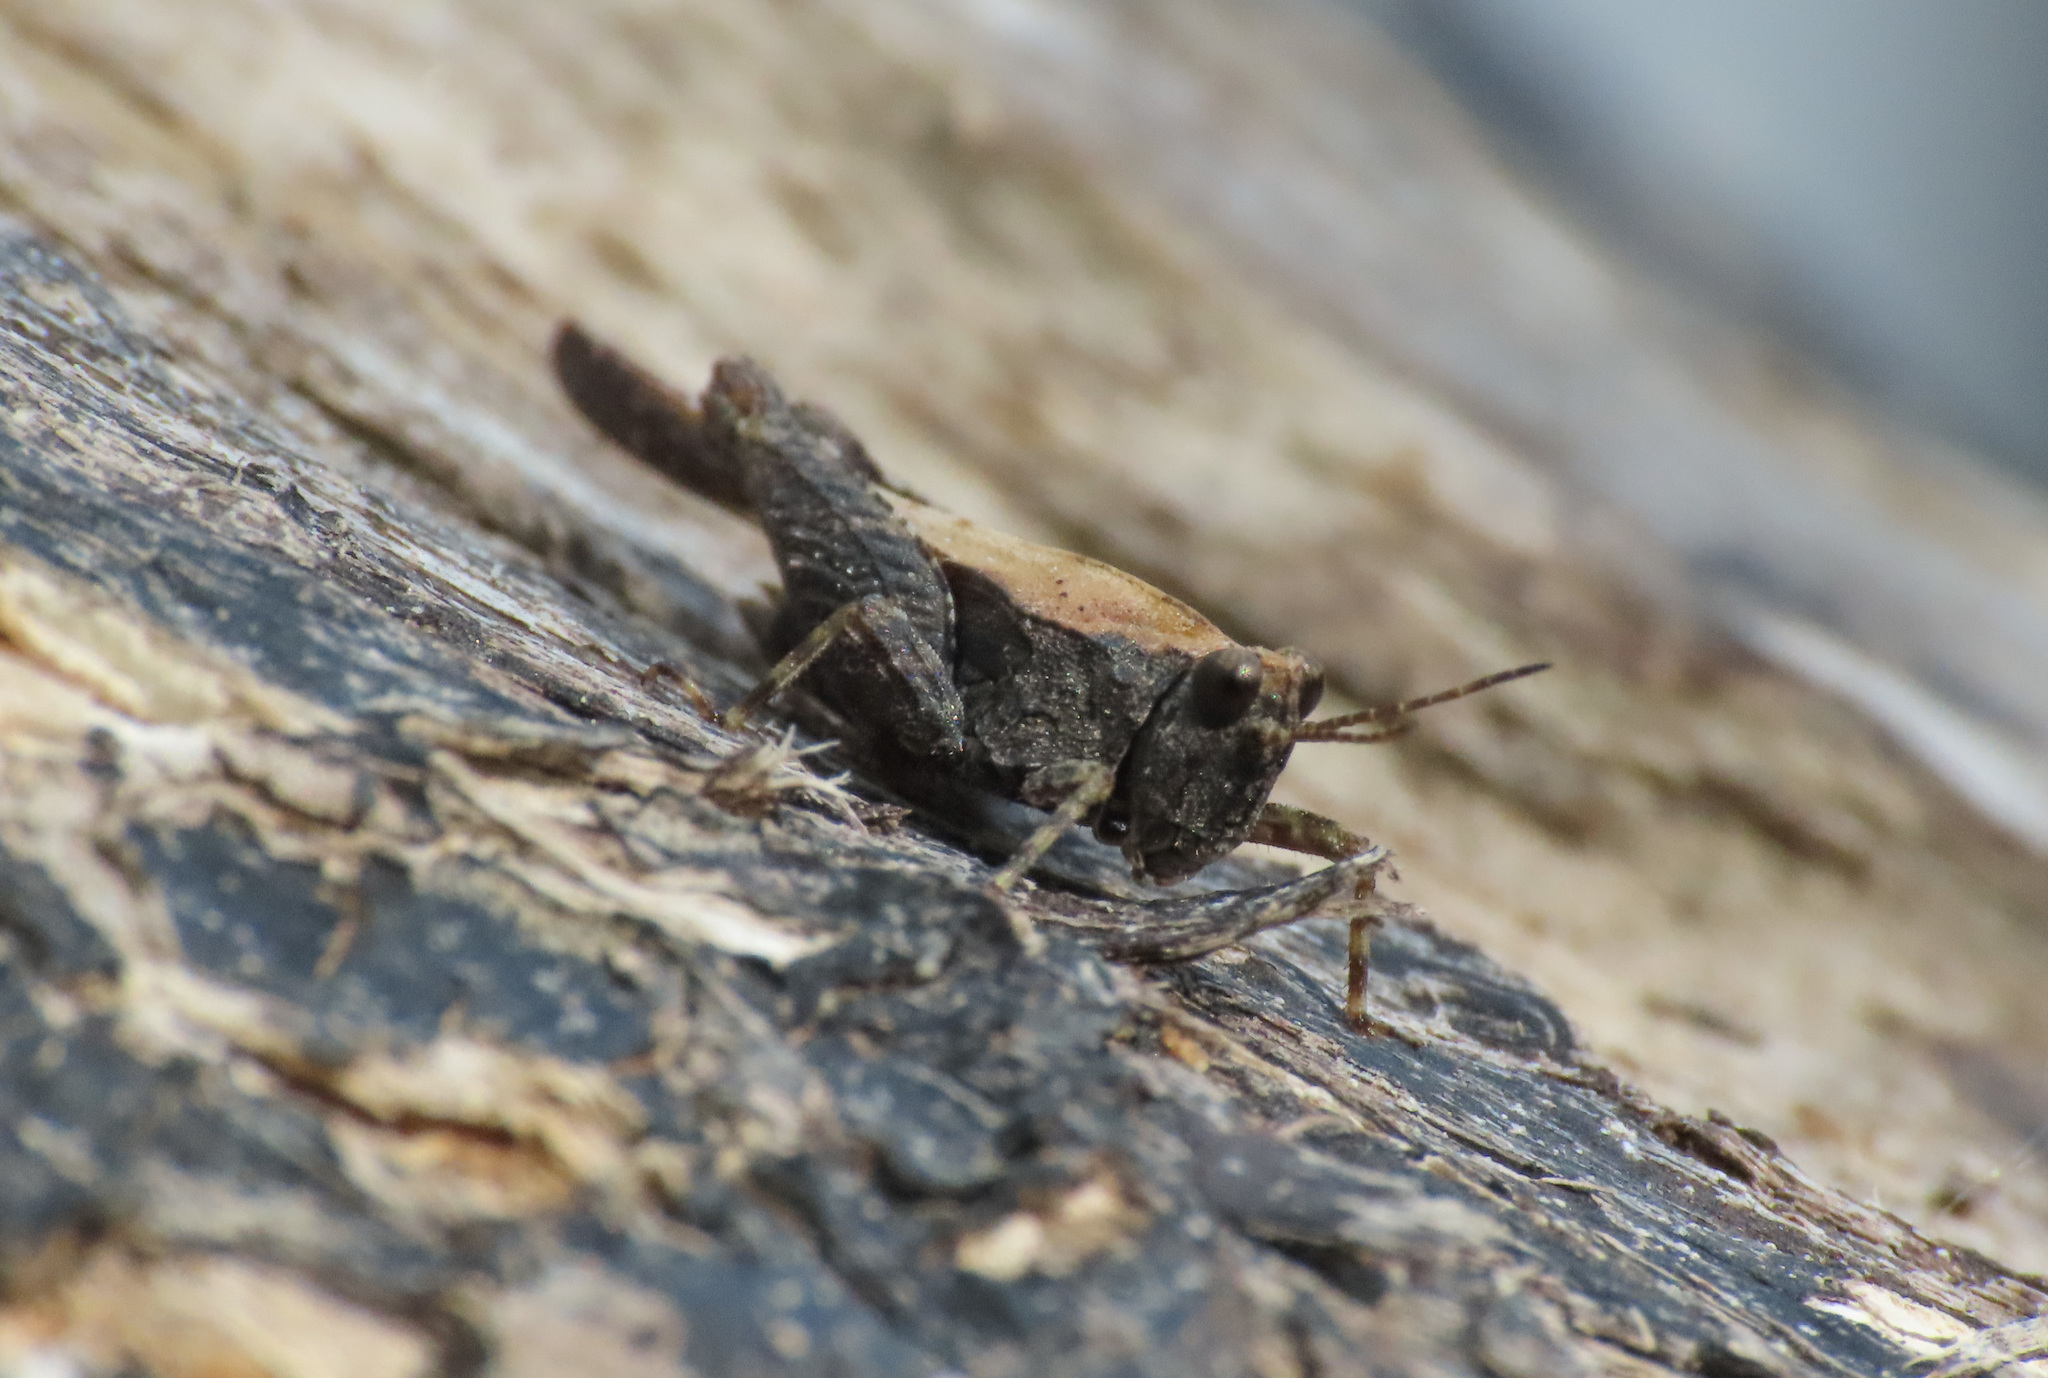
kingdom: Animalia
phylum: Arthropoda
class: Insecta
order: Orthoptera
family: Tetrigidae
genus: Tetrix
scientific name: Tetrix ceperoi
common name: Cepero's ground-hopper
